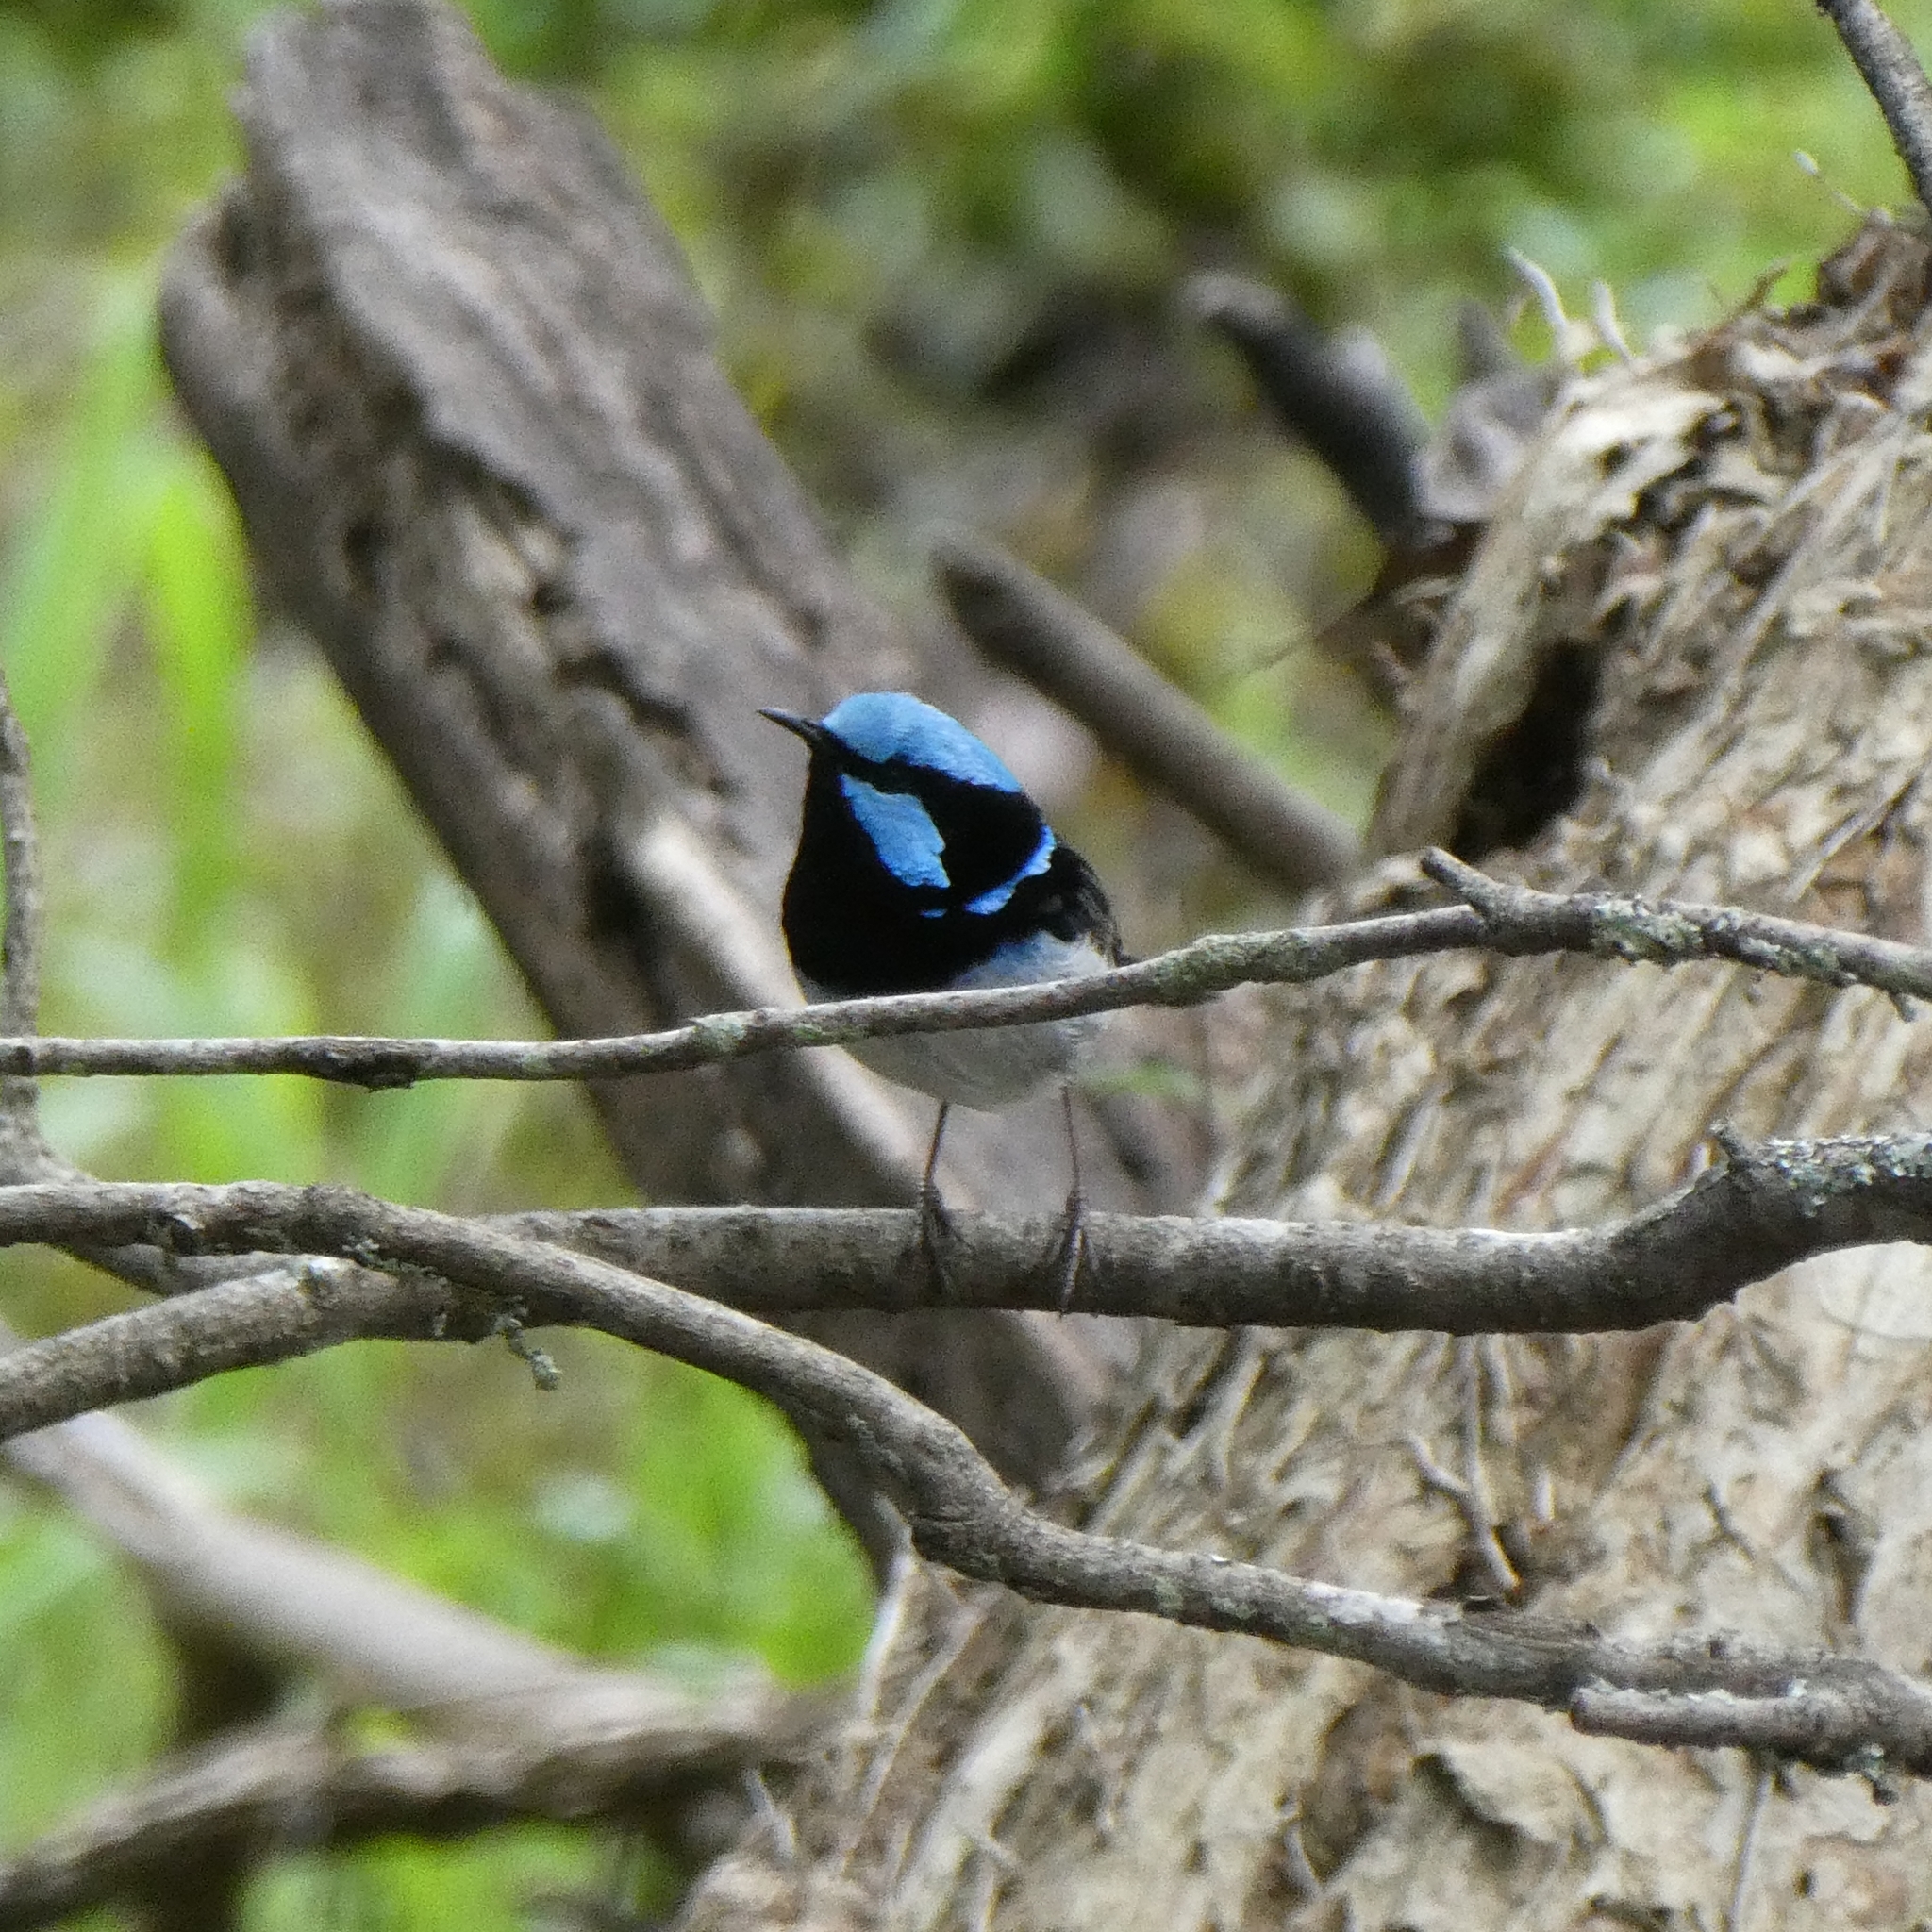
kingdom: Animalia
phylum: Chordata
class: Aves
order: Passeriformes
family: Maluridae
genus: Malurus
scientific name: Malurus cyaneus
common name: Superb fairywren
